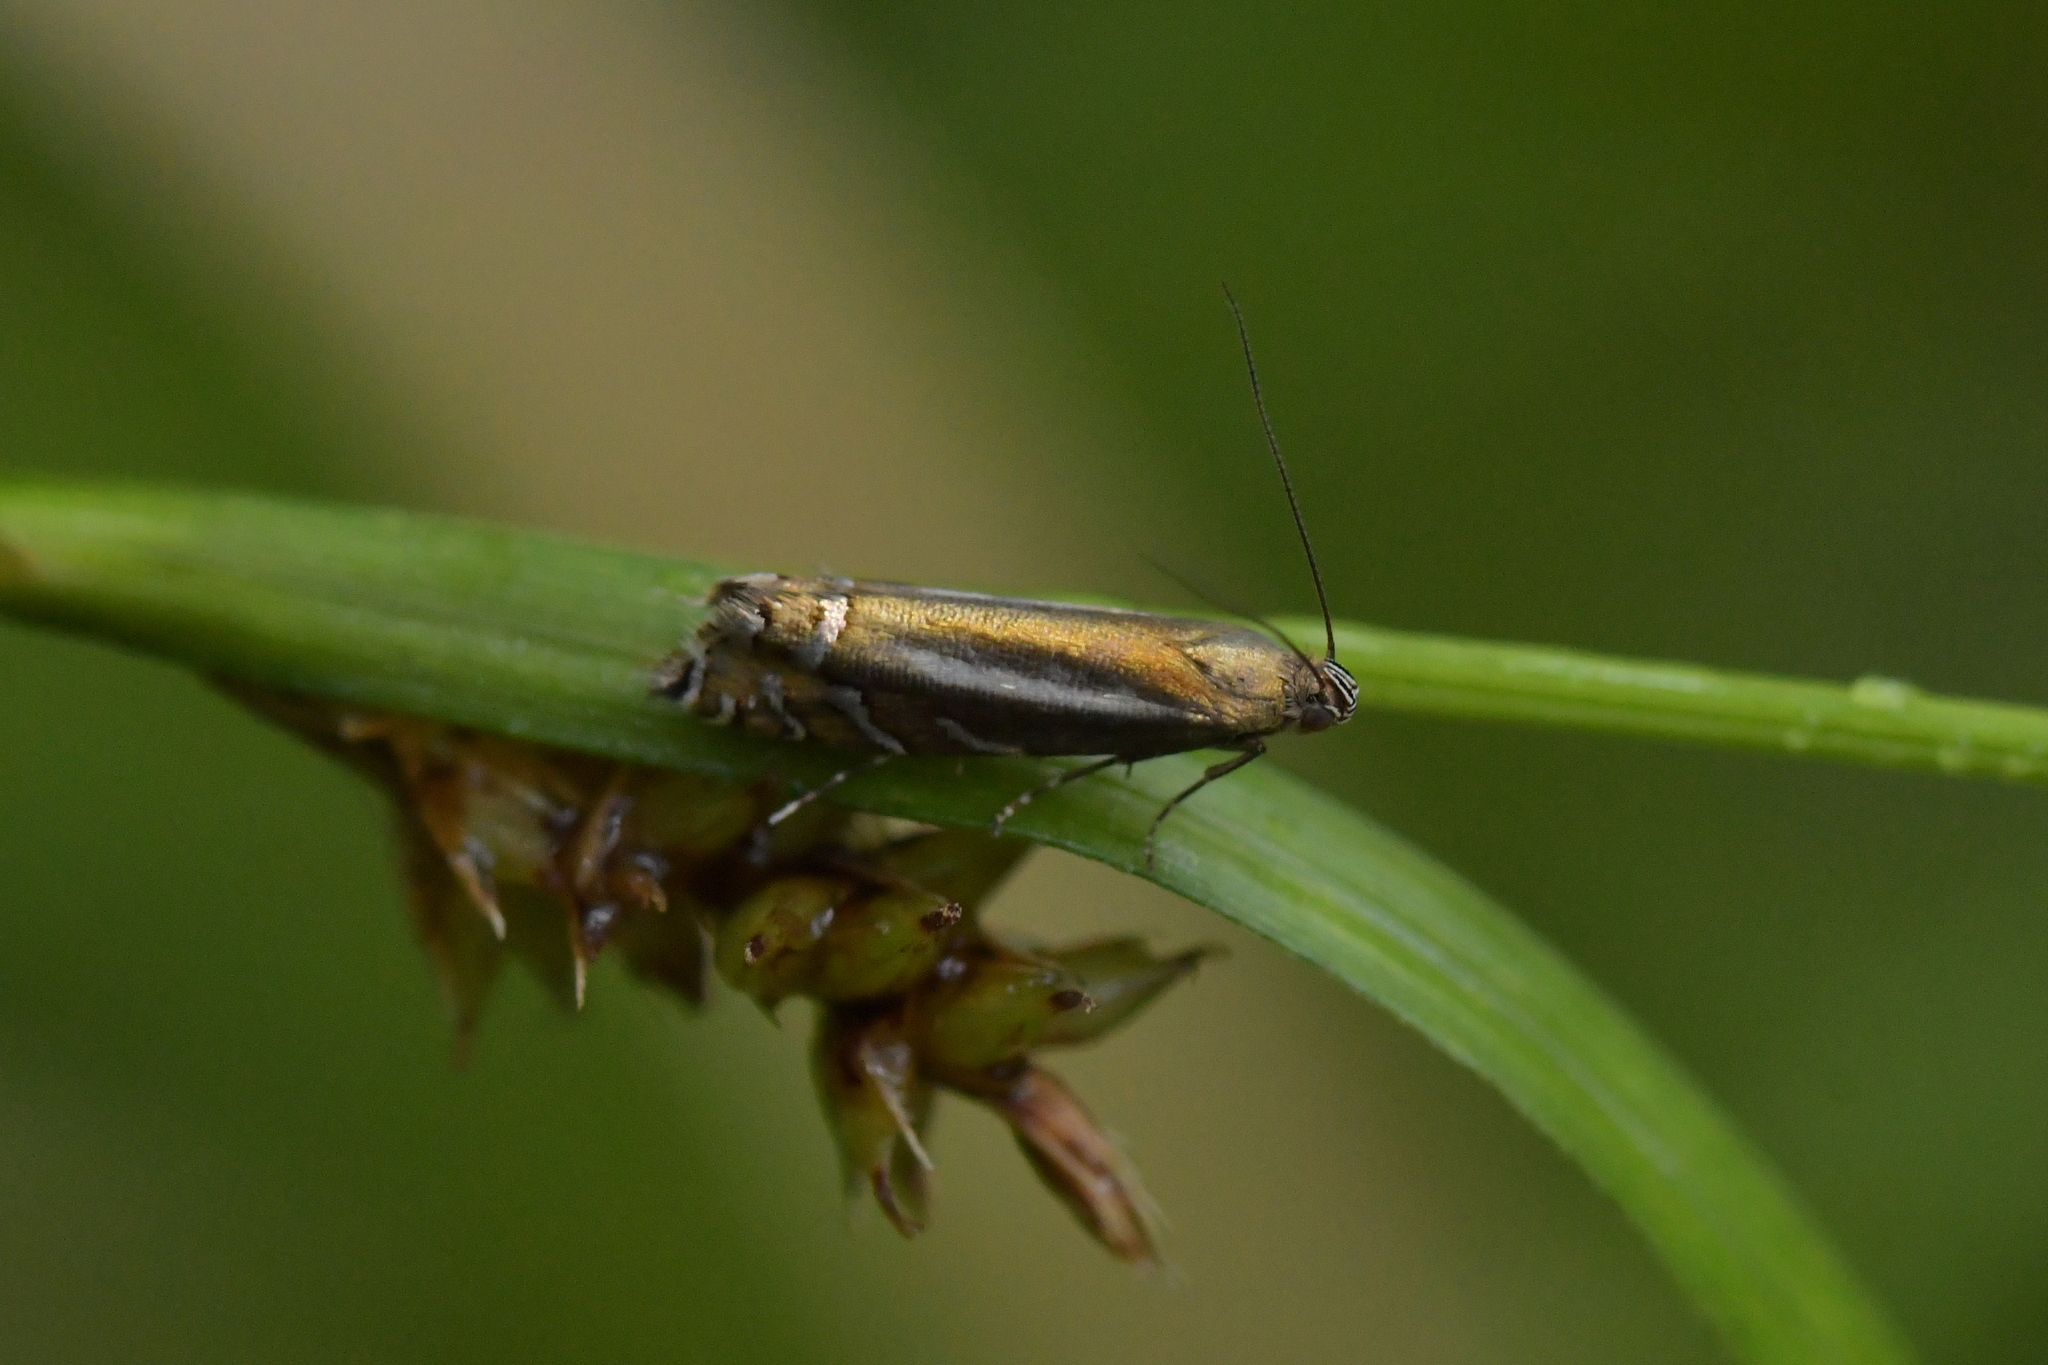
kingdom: Animalia
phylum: Arthropoda
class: Insecta
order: Lepidoptera
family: Glyphipterigidae
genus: Glyphipterix
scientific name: Glyphipterix scintilella
